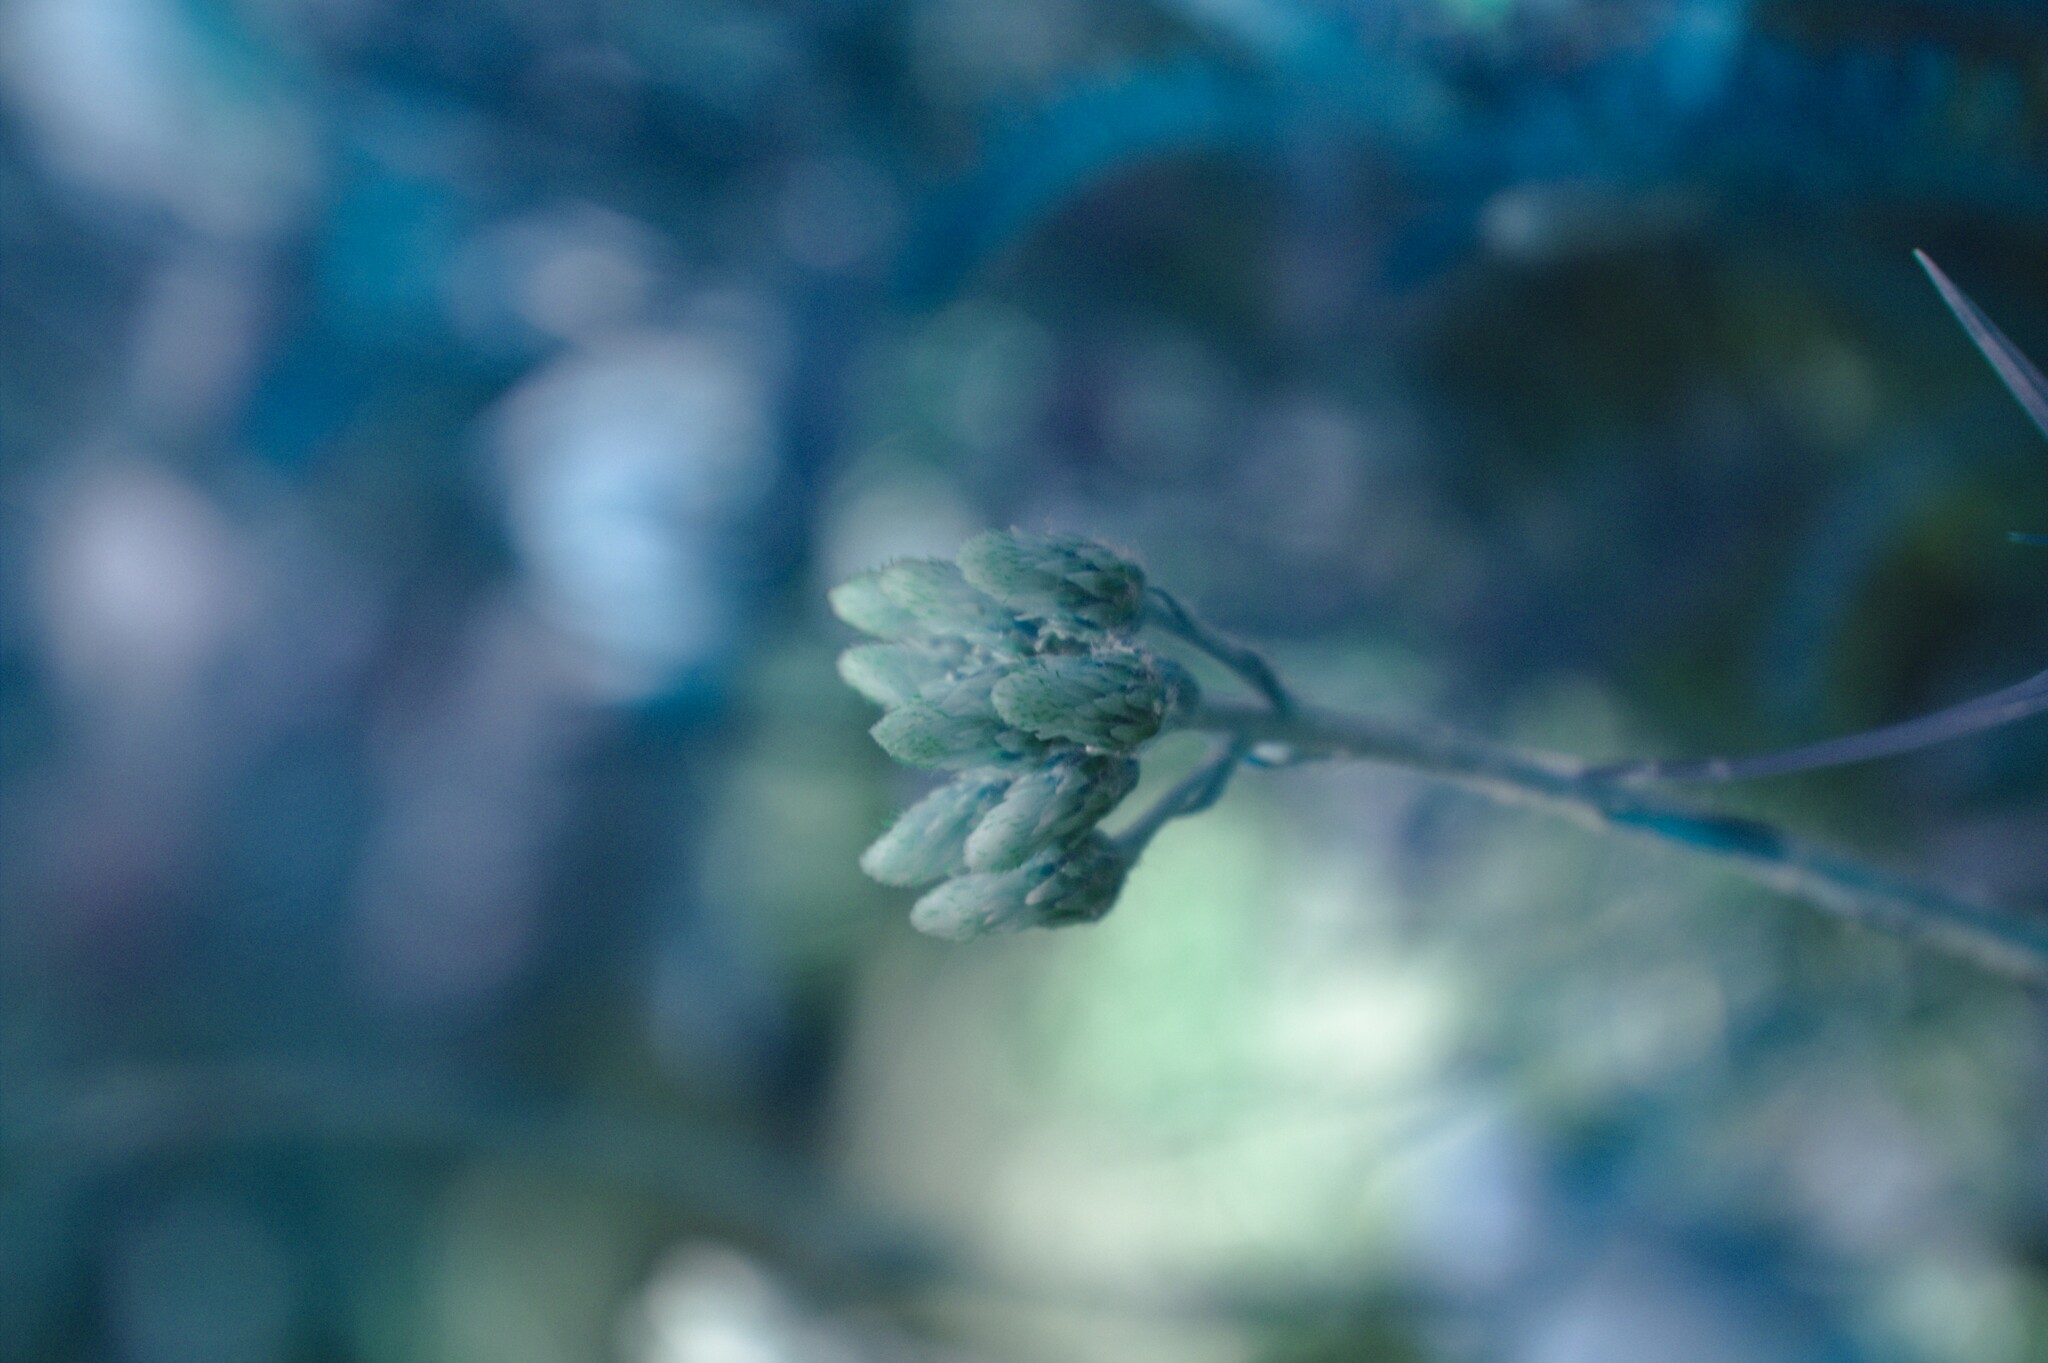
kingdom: Plantae
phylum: Tracheophyta
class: Magnoliopsida
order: Asterales
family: Asteraceae
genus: Antennaria
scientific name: Antennaria howellii
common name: Howell's pussytoes
